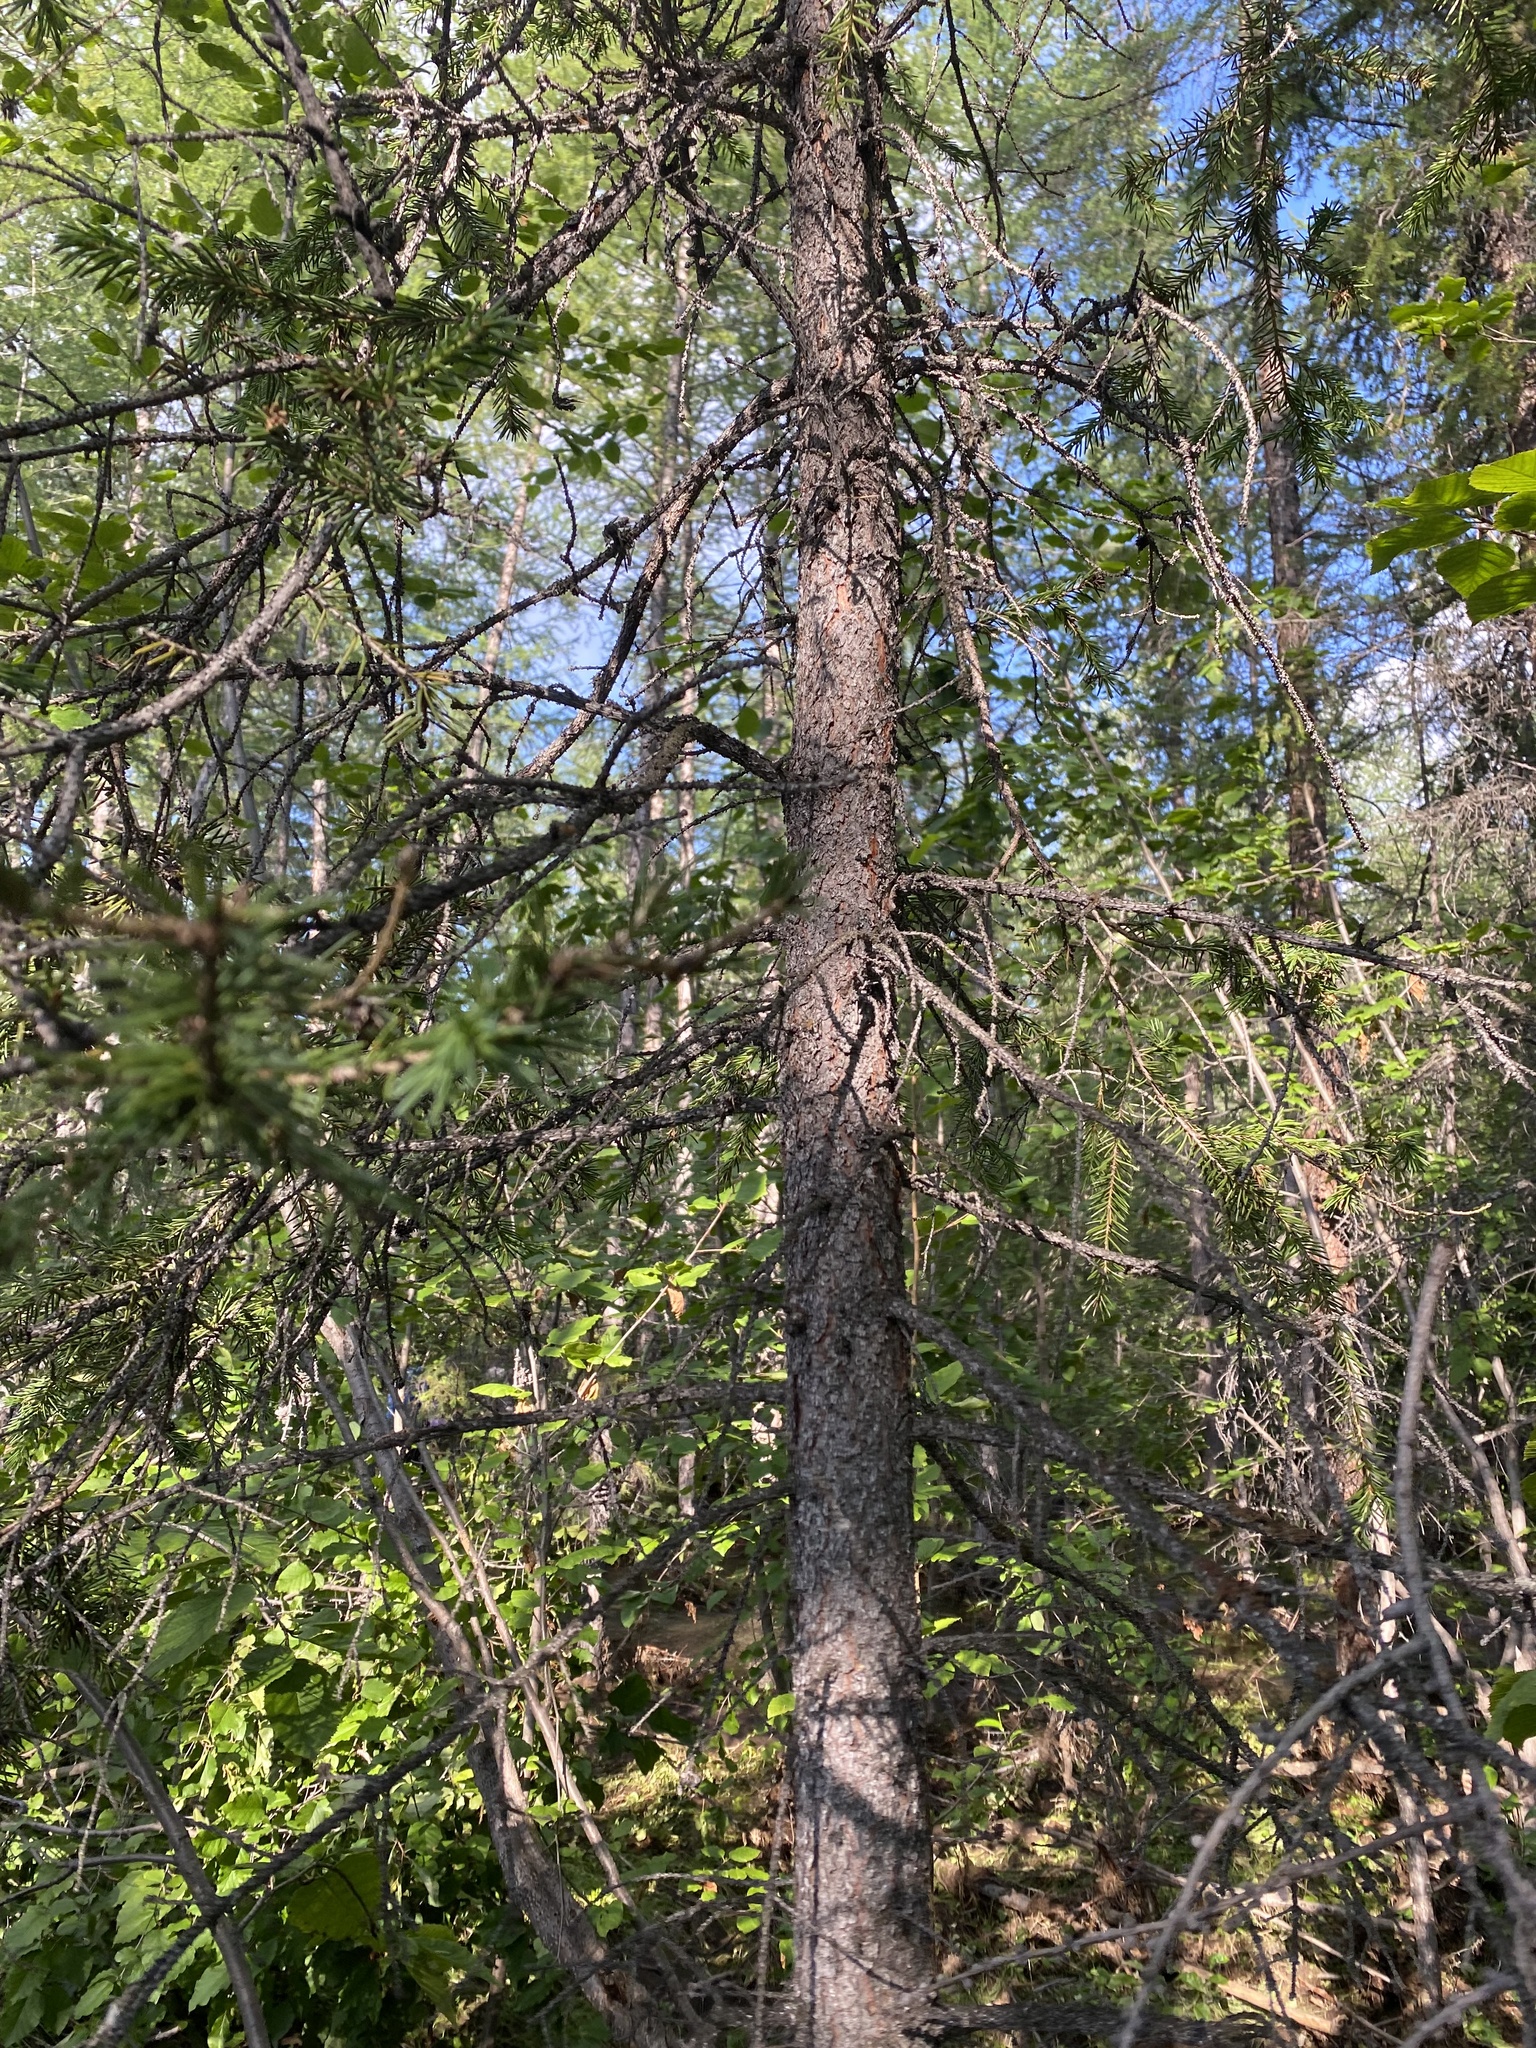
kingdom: Plantae
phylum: Tracheophyta
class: Pinopsida
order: Pinales
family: Pinaceae
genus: Picea
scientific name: Picea obovata
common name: Siberian spruce
